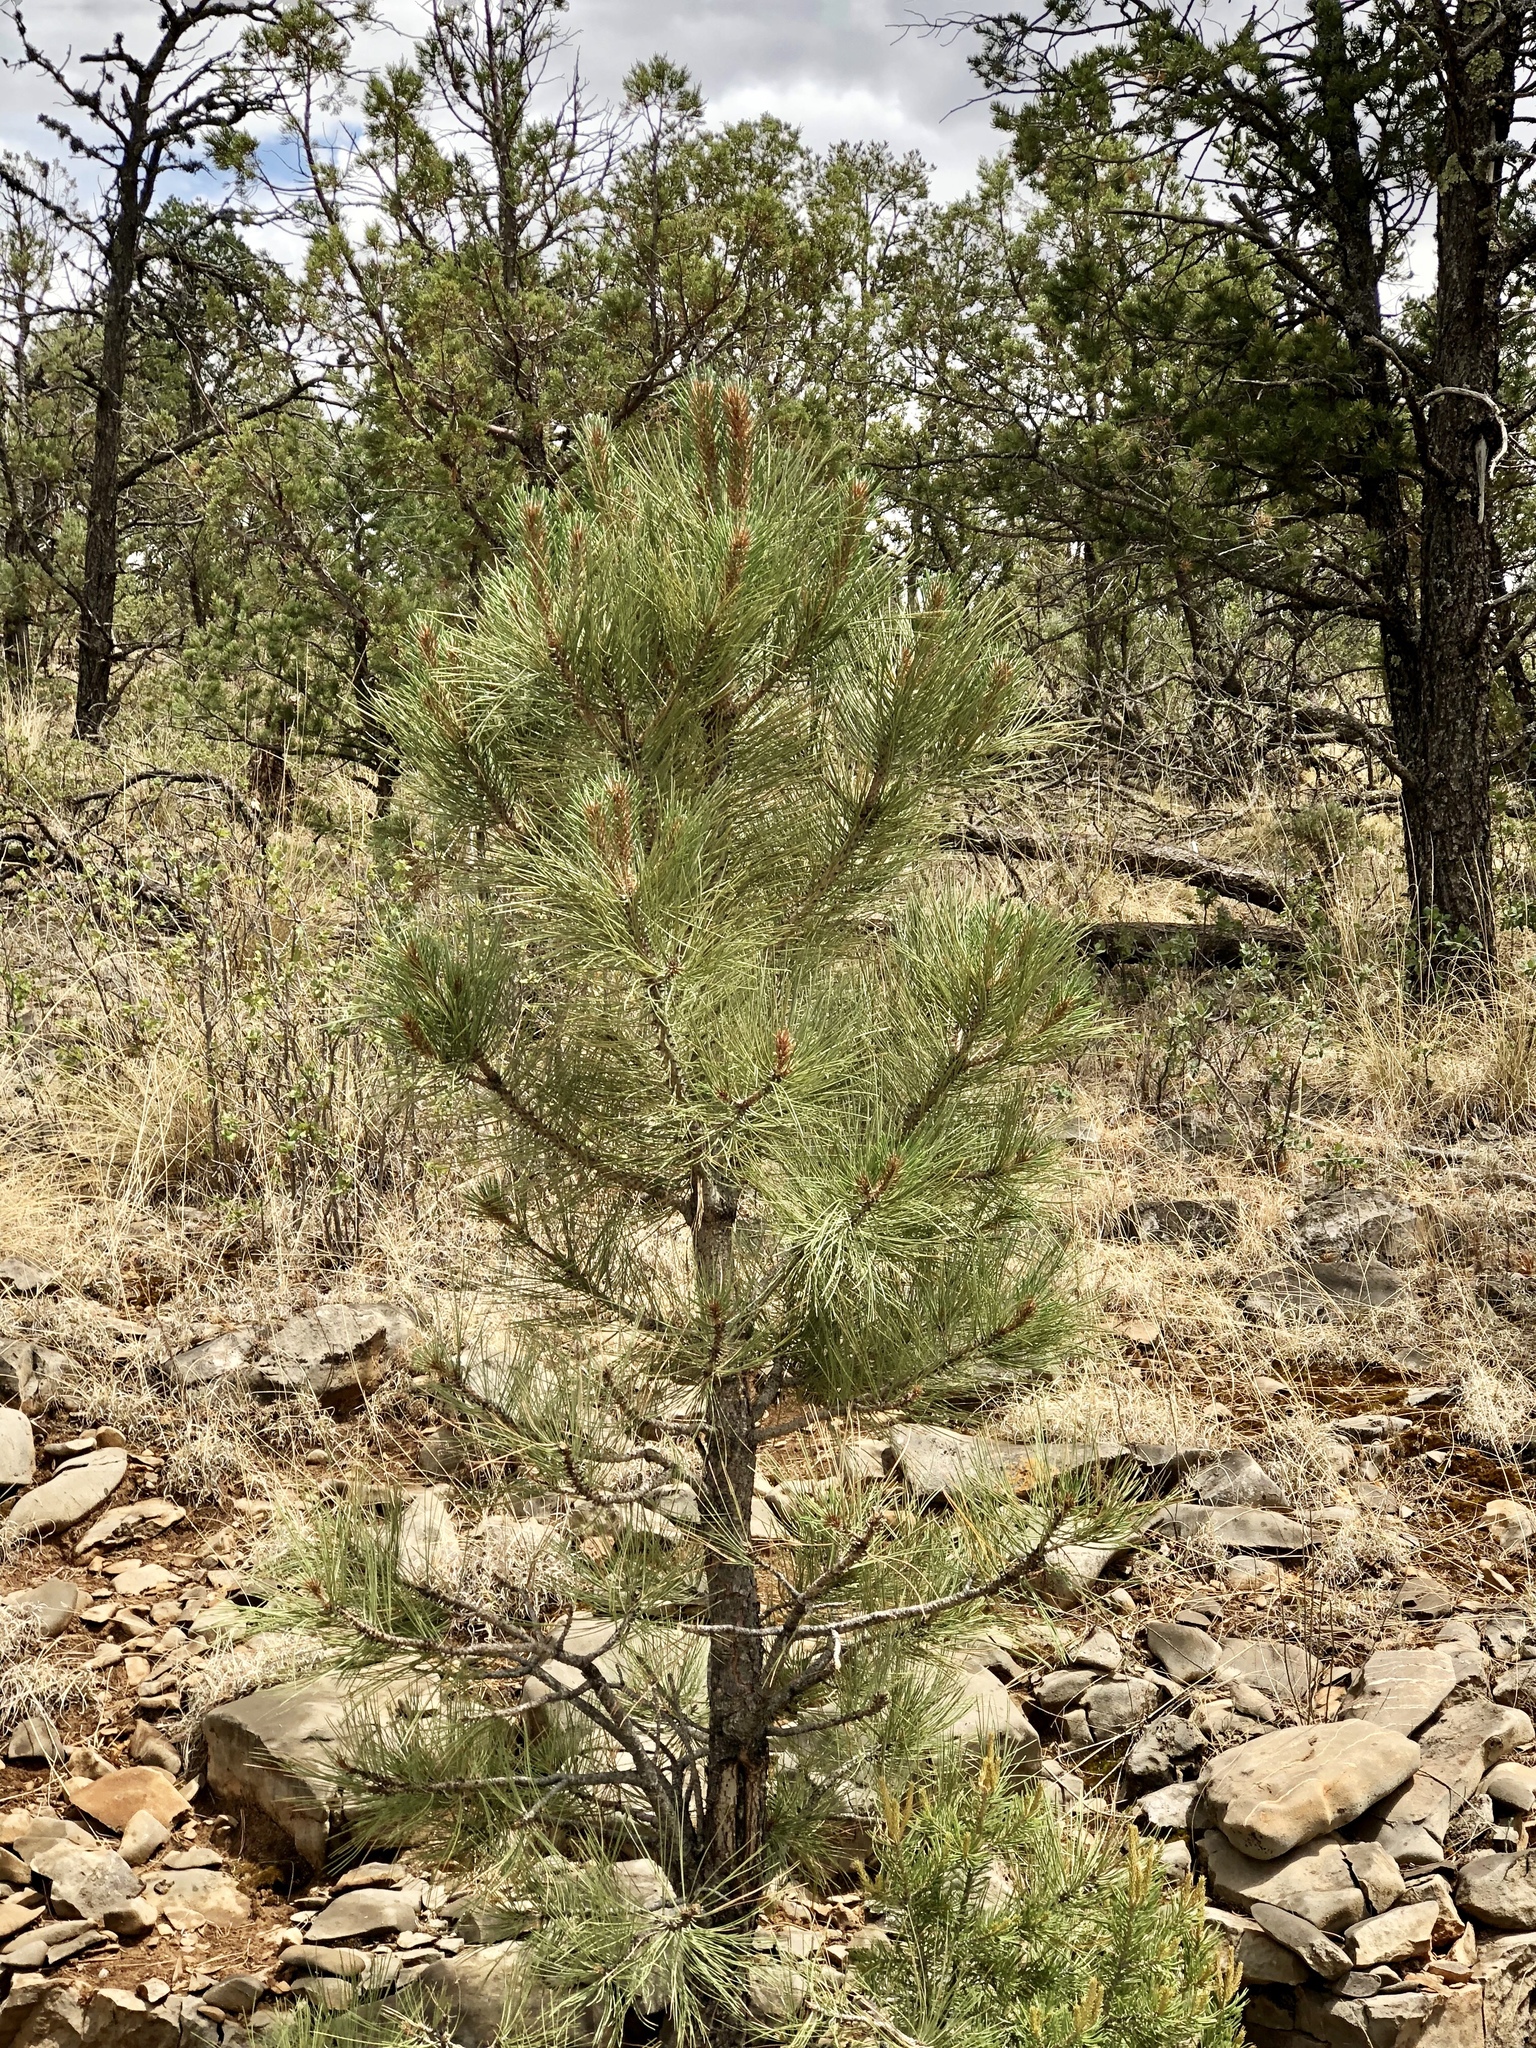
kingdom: Plantae
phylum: Tracheophyta
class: Pinopsida
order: Pinales
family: Pinaceae
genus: Pinus
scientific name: Pinus ponderosa
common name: Western yellow-pine
